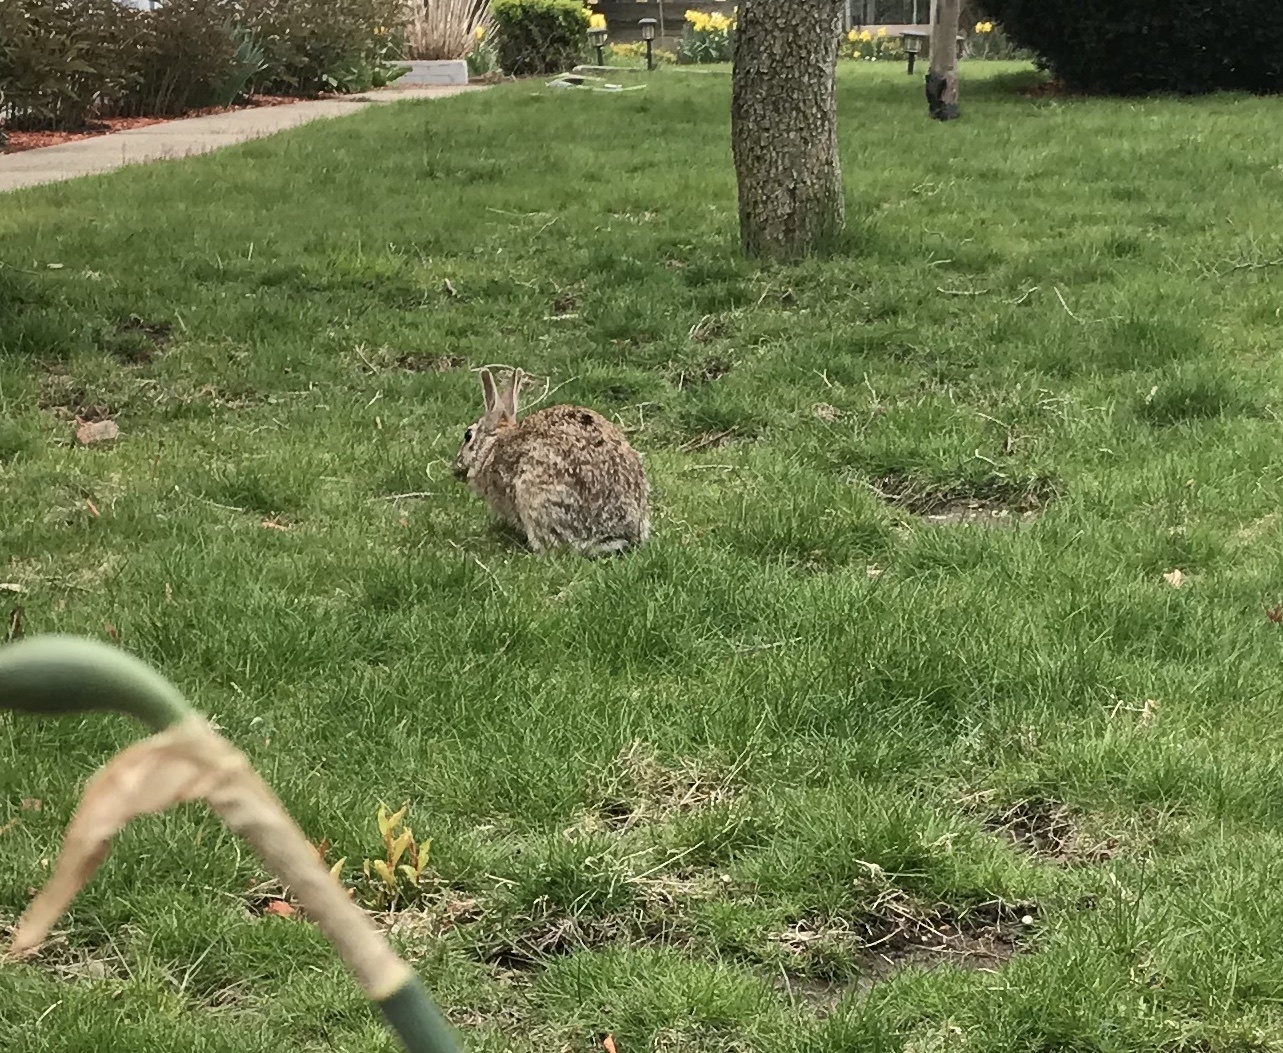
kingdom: Animalia
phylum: Chordata
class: Mammalia
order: Lagomorpha
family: Leporidae
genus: Sylvilagus
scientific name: Sylvilagus floridanus
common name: Eastern cottontail
